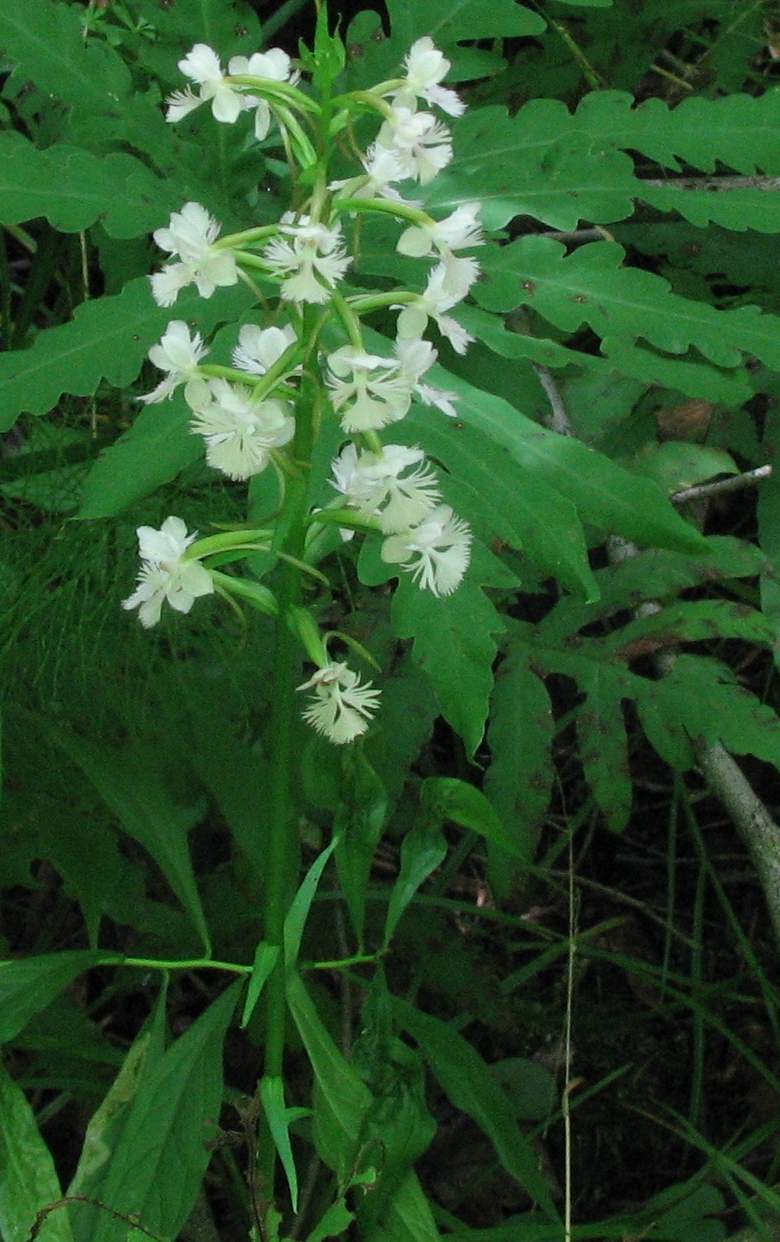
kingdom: Plantae
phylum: Tracheophyta
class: Liliopsida
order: Asparagales
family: Orchidaceae
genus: Platanthera
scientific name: Platanthera psycodes
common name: Lesser purple fringed orchid
